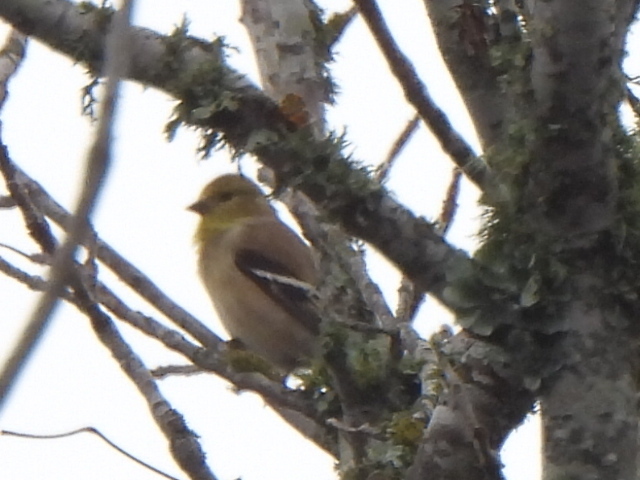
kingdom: Animalia
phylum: Chordata
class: Aves
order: Passeriformes
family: Fringillidae
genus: Spinus
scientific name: Spinus tristis
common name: American goldfinch
